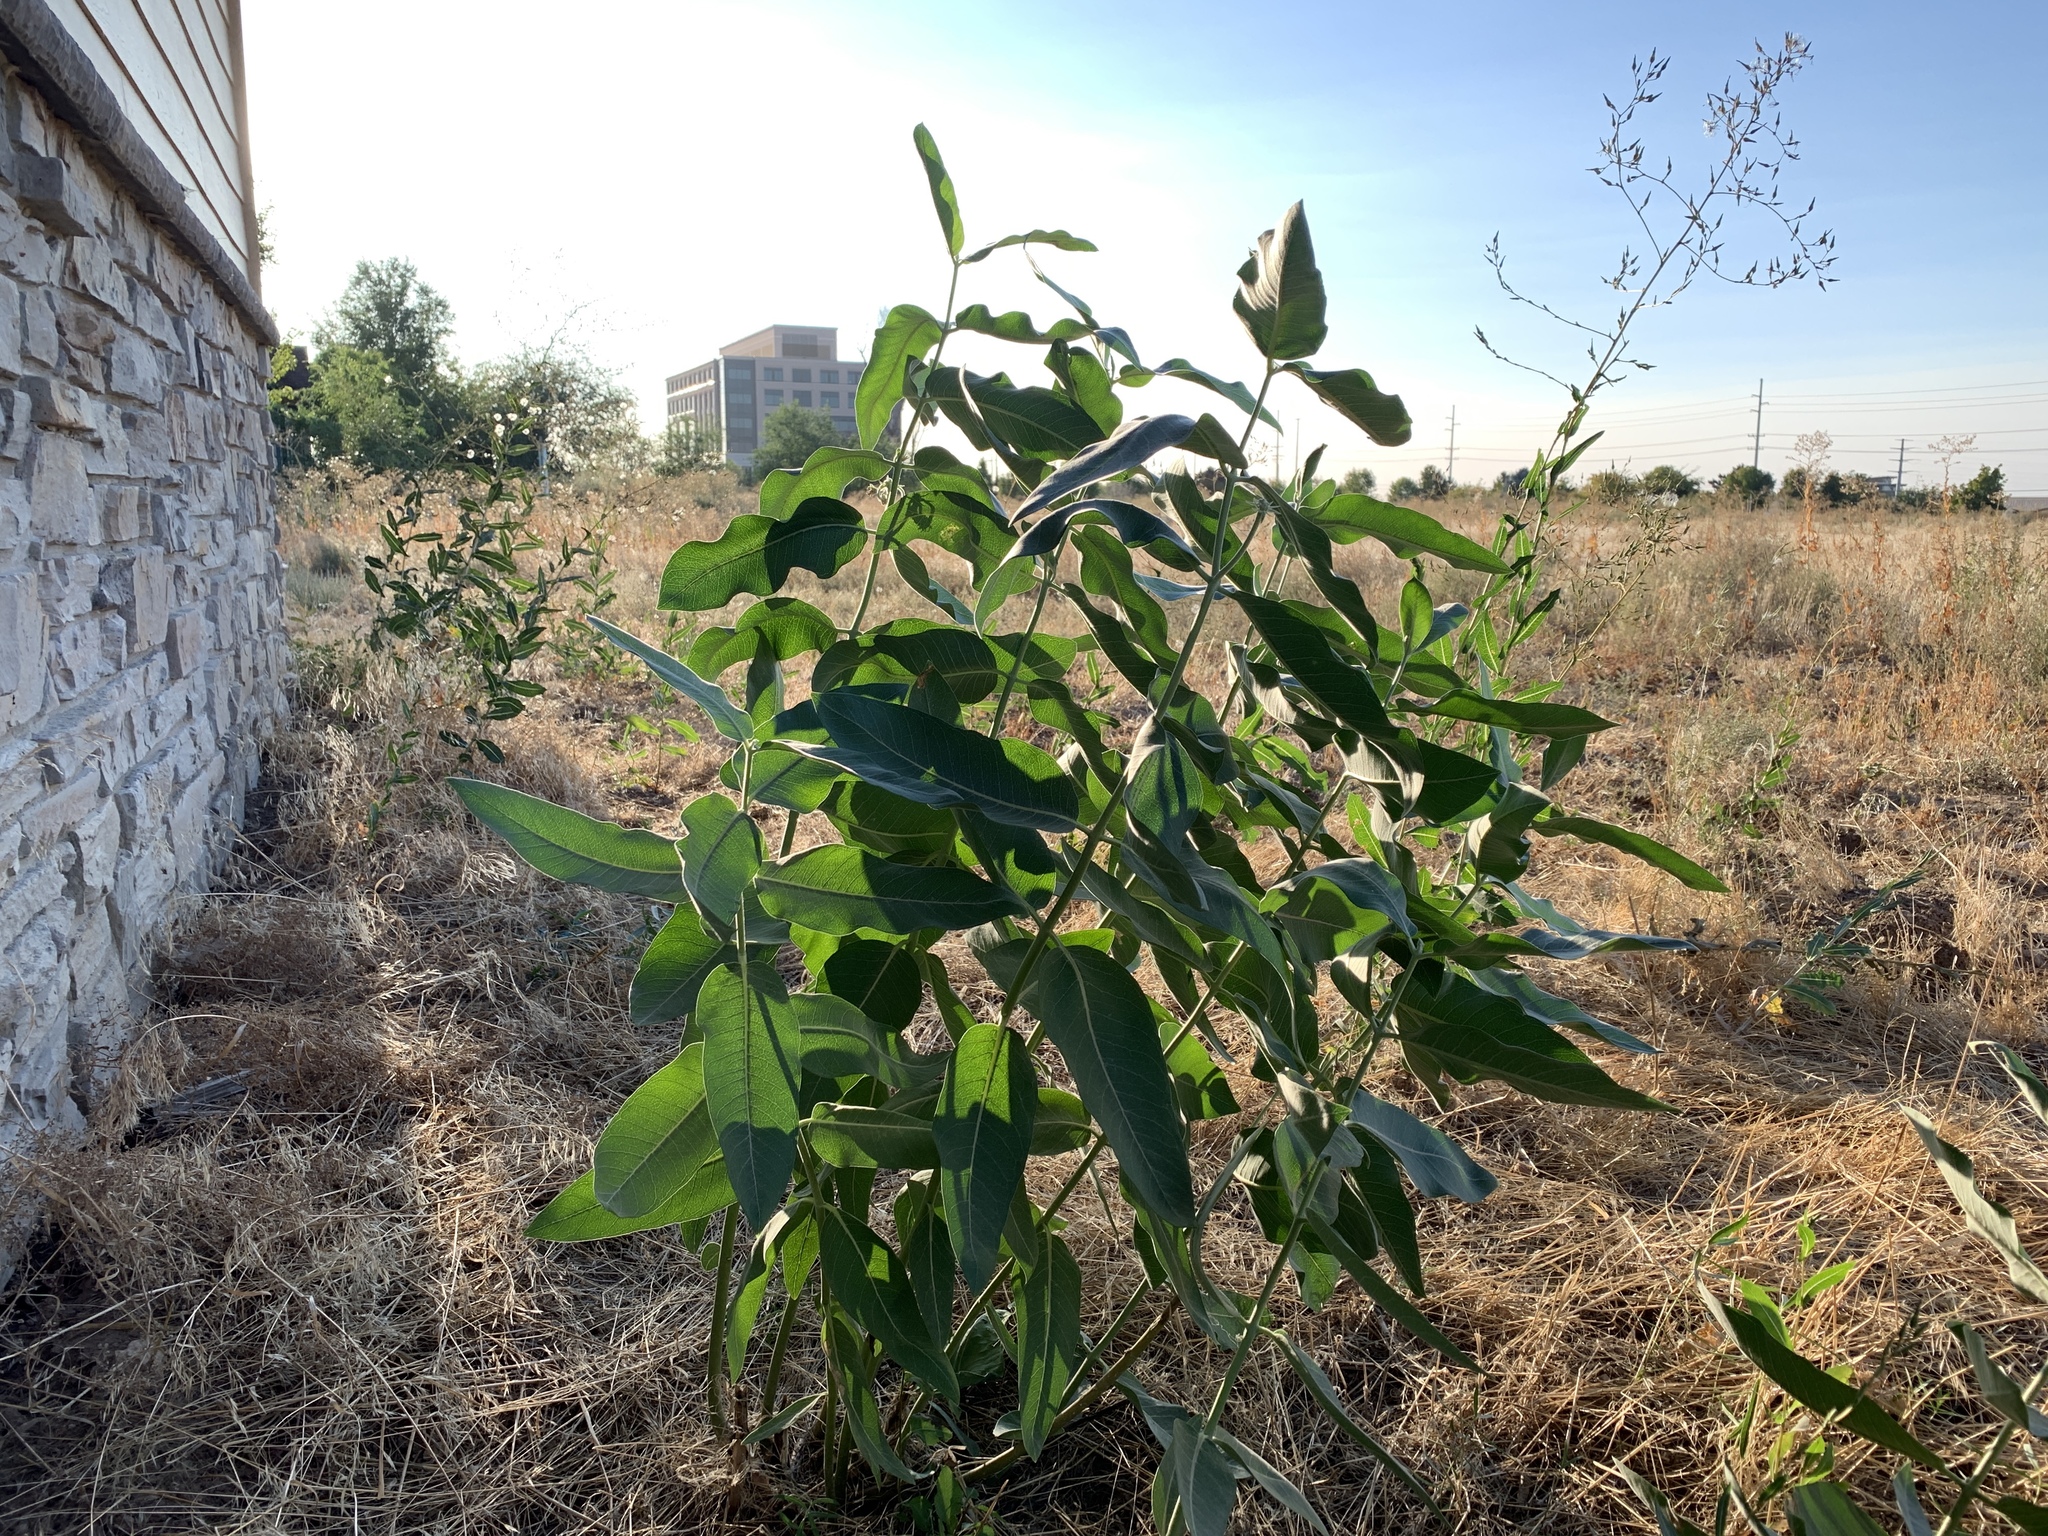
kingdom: Plantae
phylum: Tracheophyta
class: Magnoliopsida
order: Gentianales
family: Apocynaceae
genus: Asclepias
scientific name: Asclepias speciosa
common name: Showy milkweed
